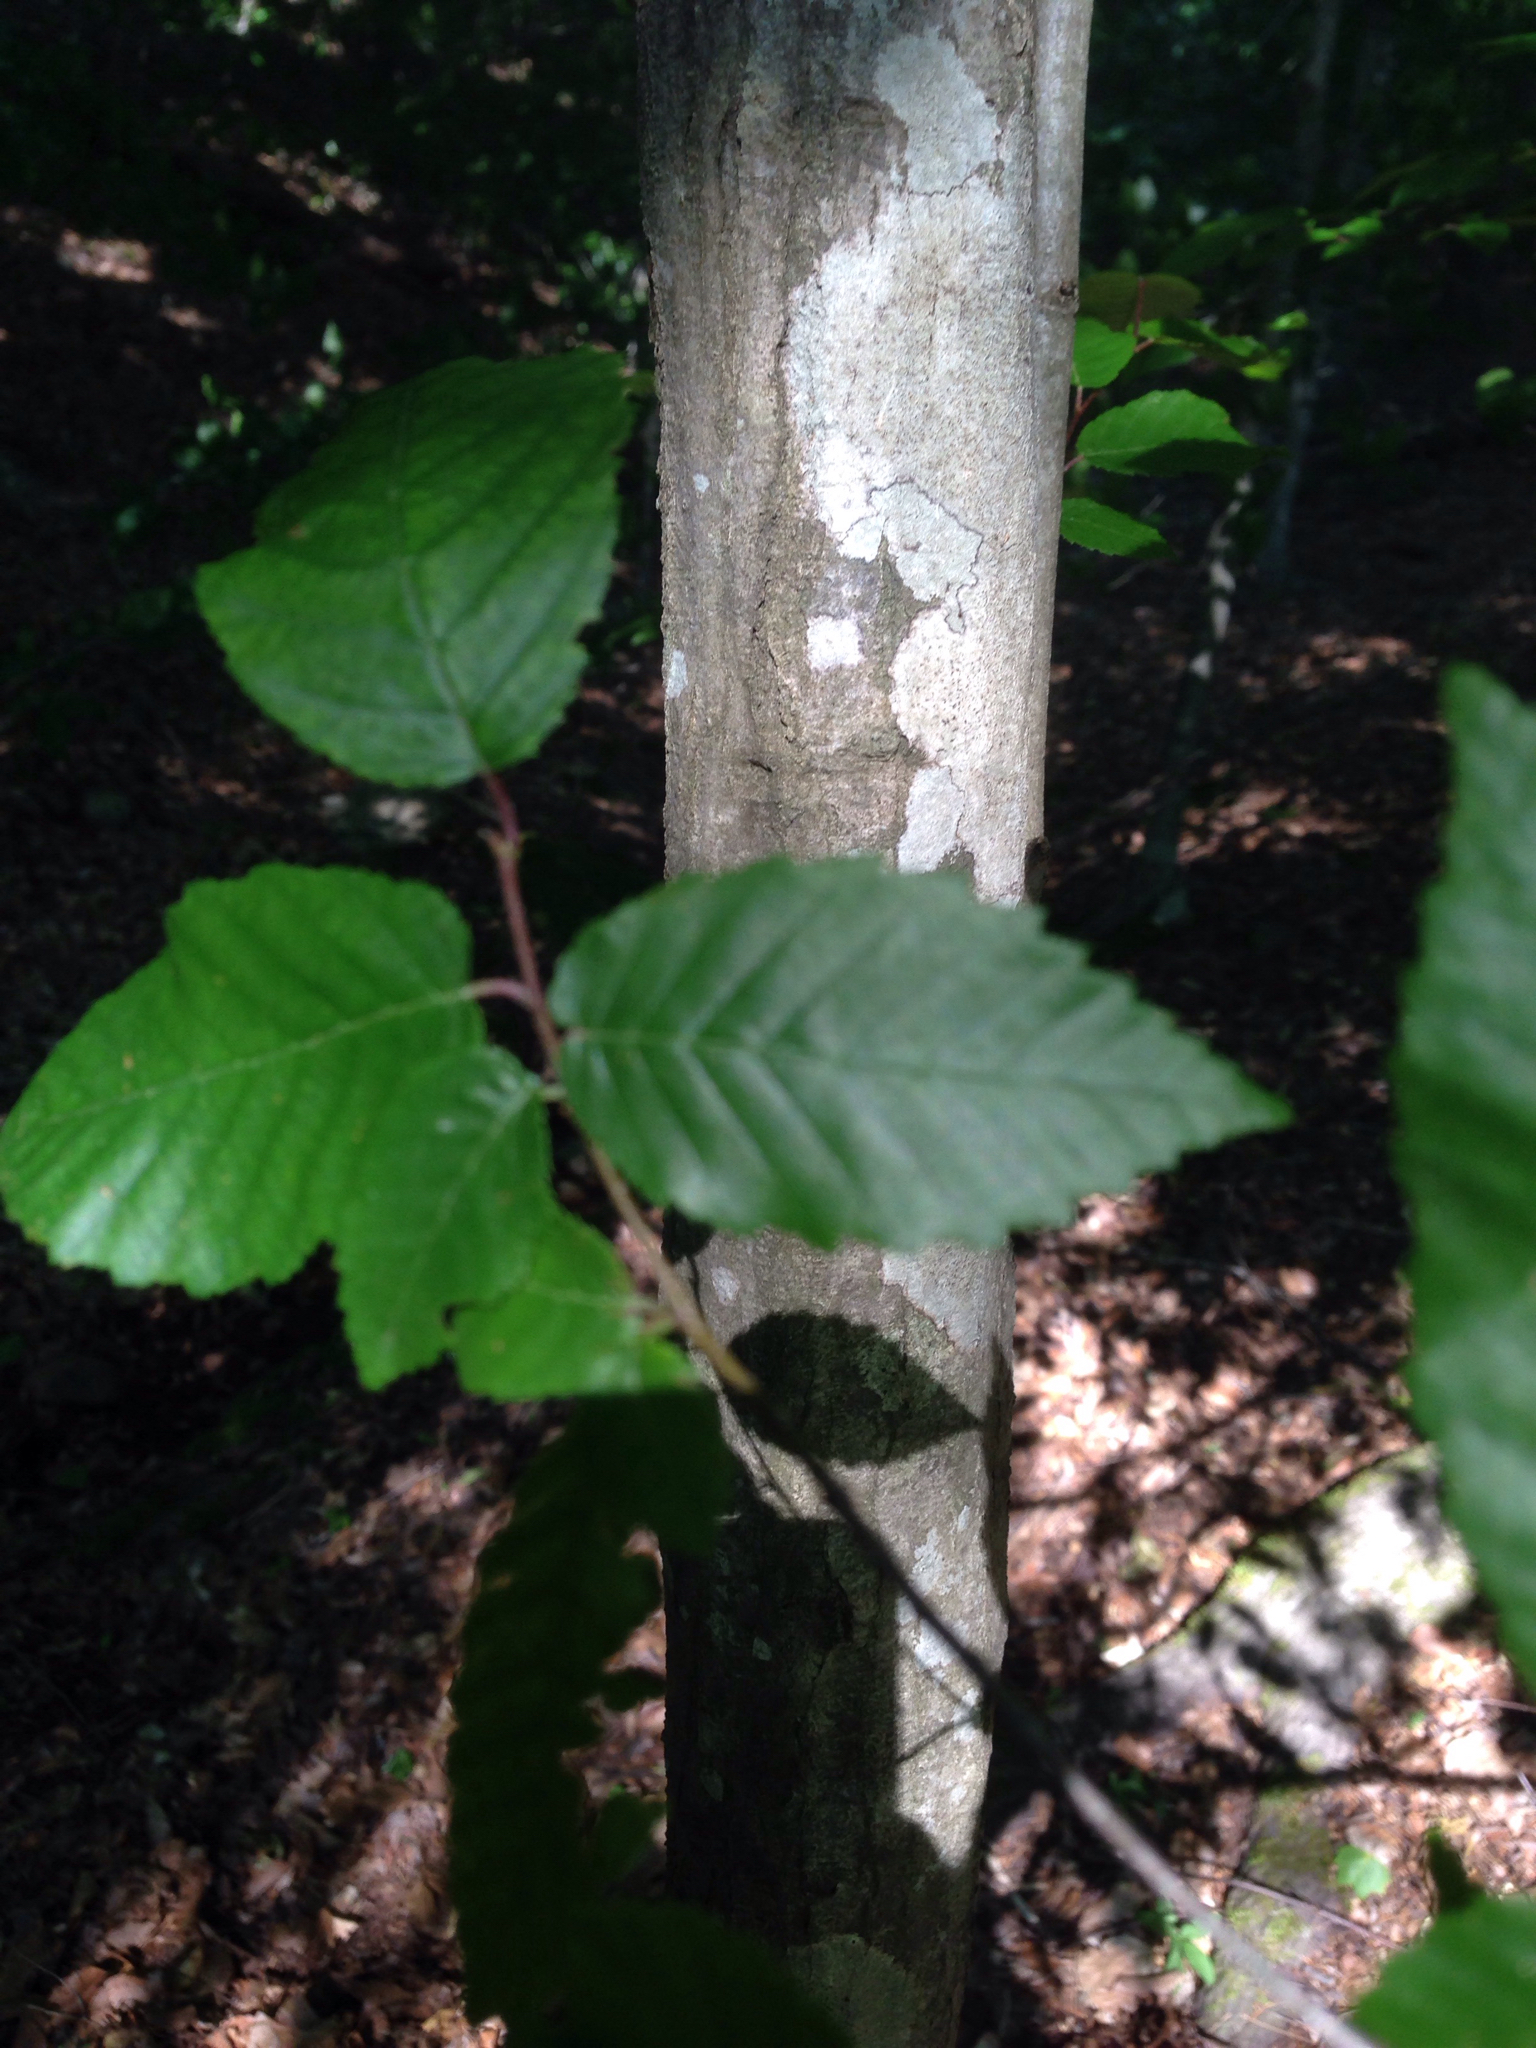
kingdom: Plantae
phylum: Tracheophyta
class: Magnoliopsida
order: Fagales
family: Betulaceae
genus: Carpinus
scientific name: Carpinus caroliniana
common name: American hornbeam
